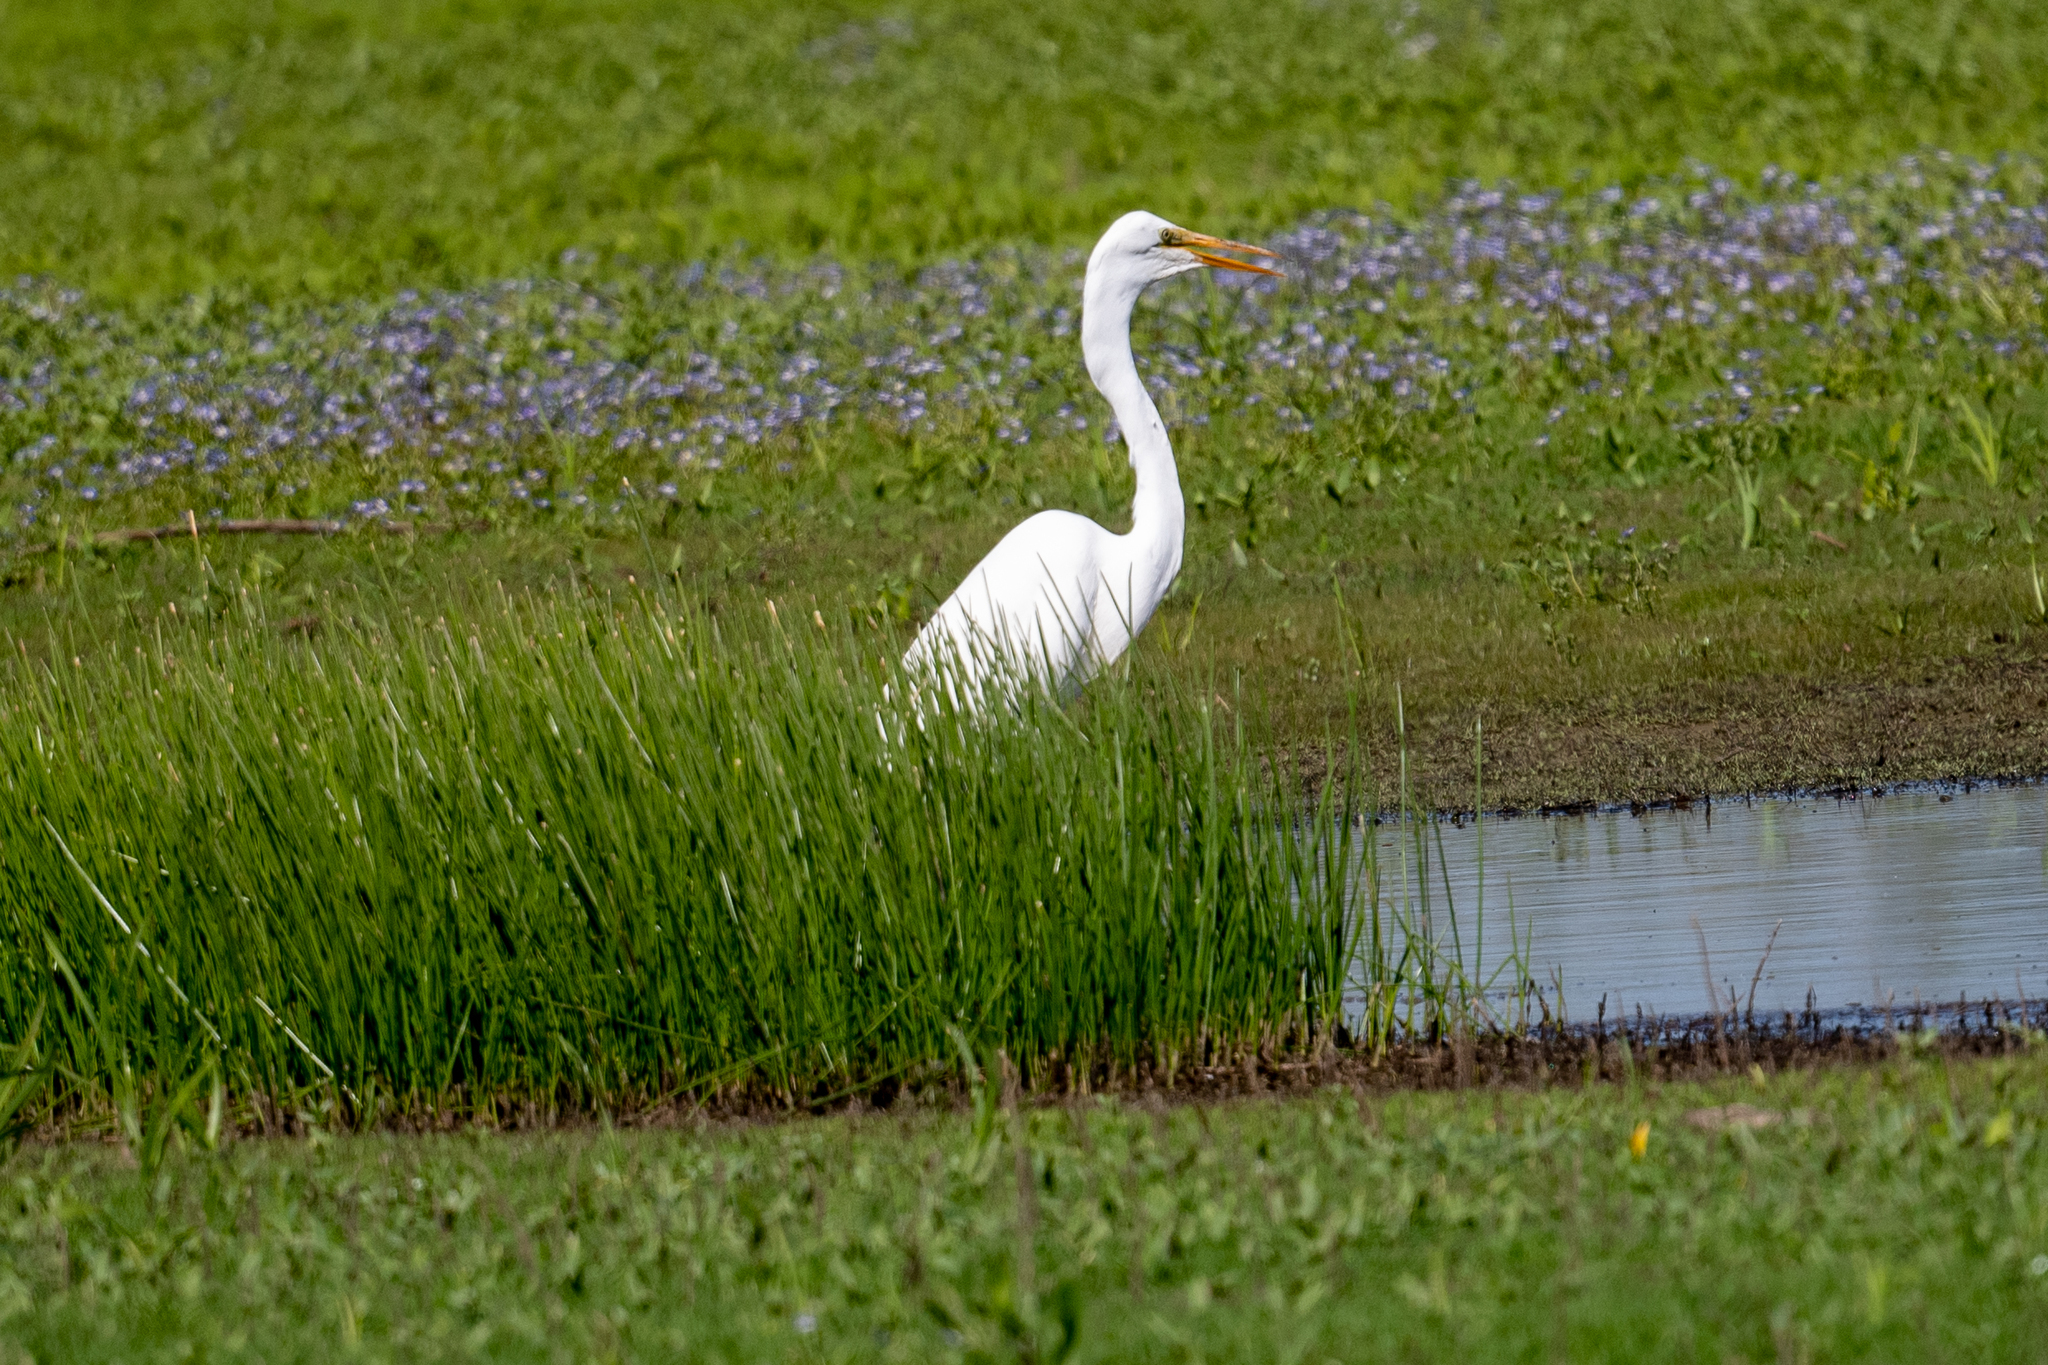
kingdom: Animalia
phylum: Chordata
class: Aves
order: Pelecaniformes
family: Ardeidae
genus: Ardea
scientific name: Ardea alba
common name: Great egret
